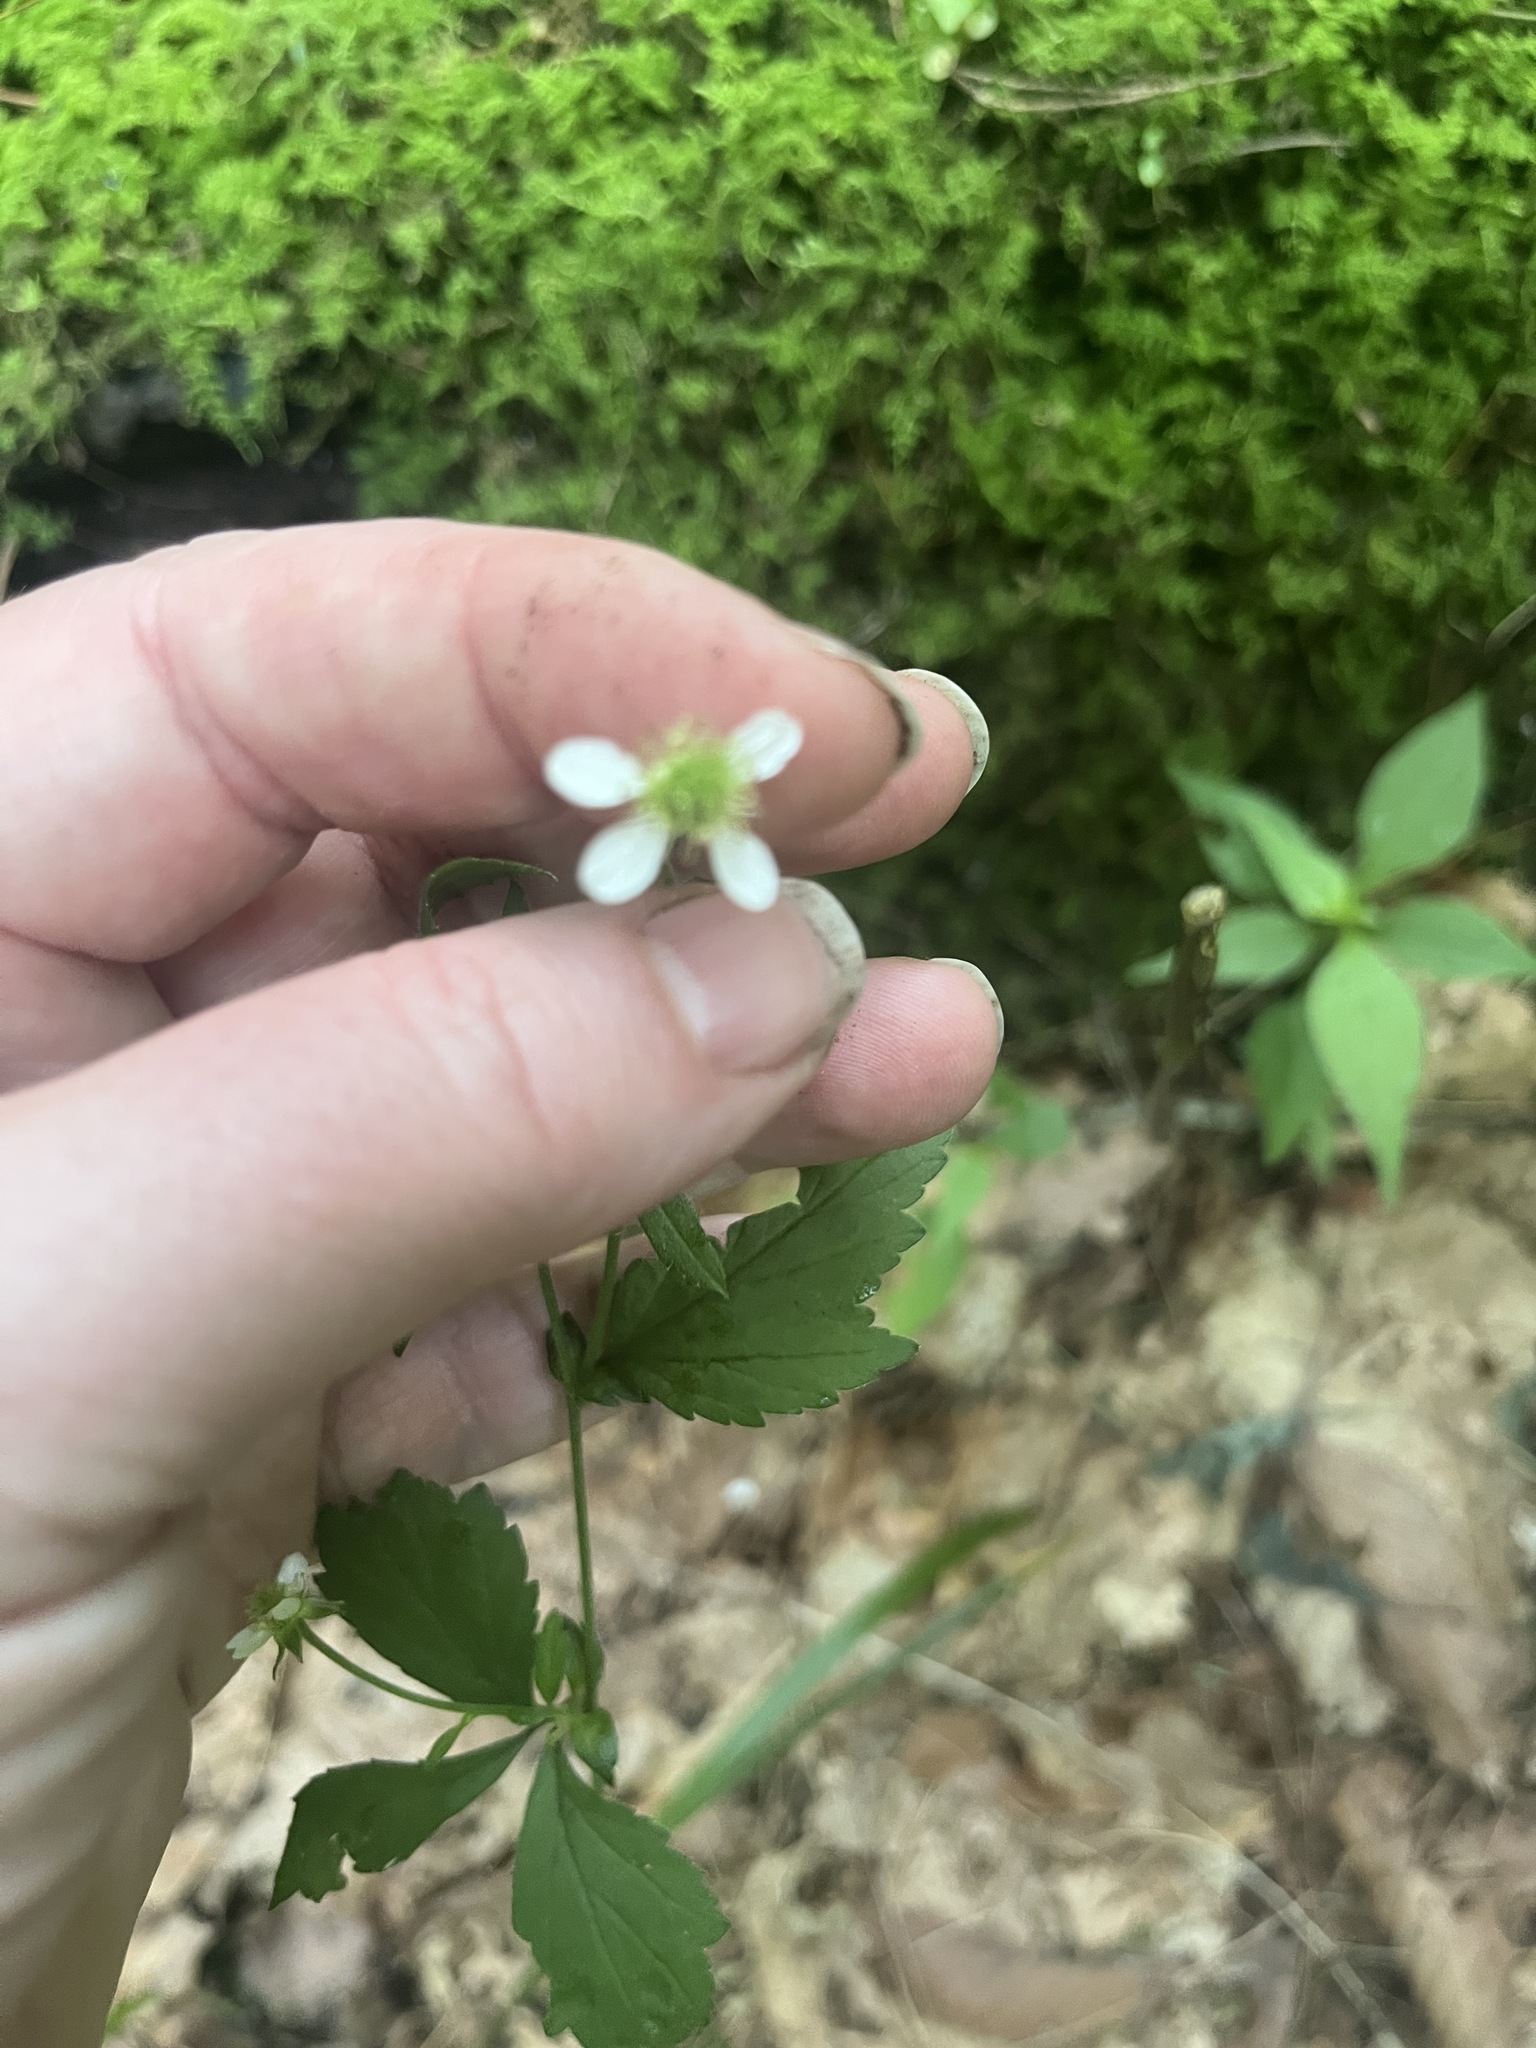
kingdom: Plantae
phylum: Tracheophyta
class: Magnoliopsida
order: Rosales
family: Rosaceae
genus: Geum
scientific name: Geum canadense
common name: White avens
